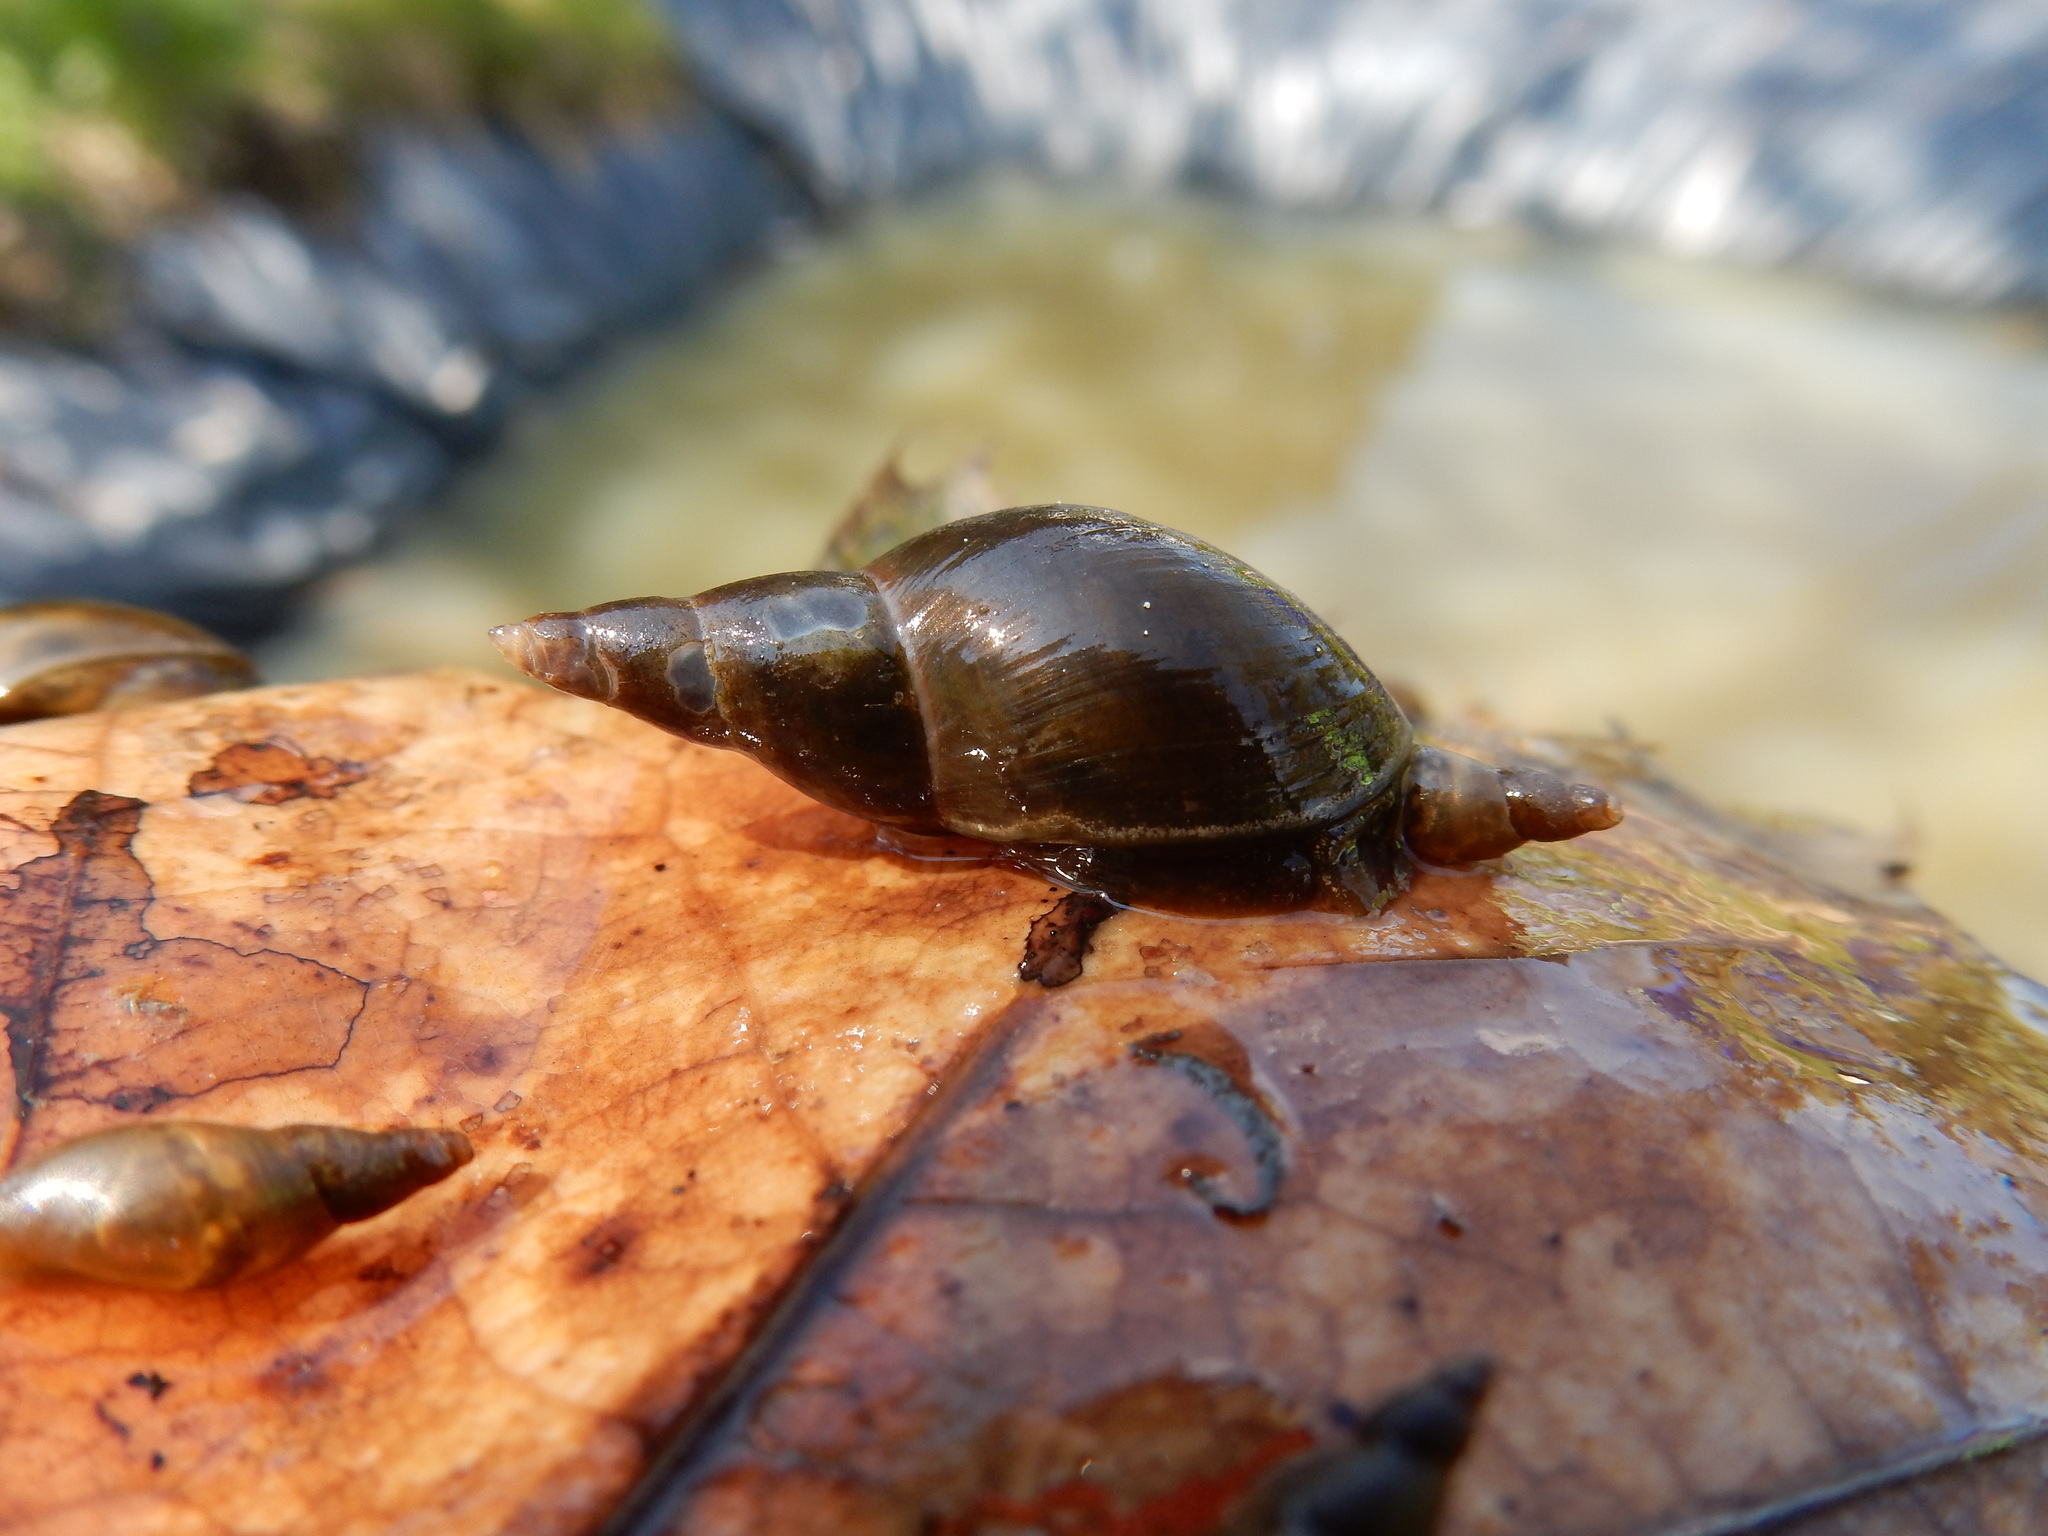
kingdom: Animalia
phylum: Mollusca
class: Gastropoda
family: Lymnaeidae
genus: Lymnaea
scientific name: Lymnaea stagnalis
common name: Great pond snail
